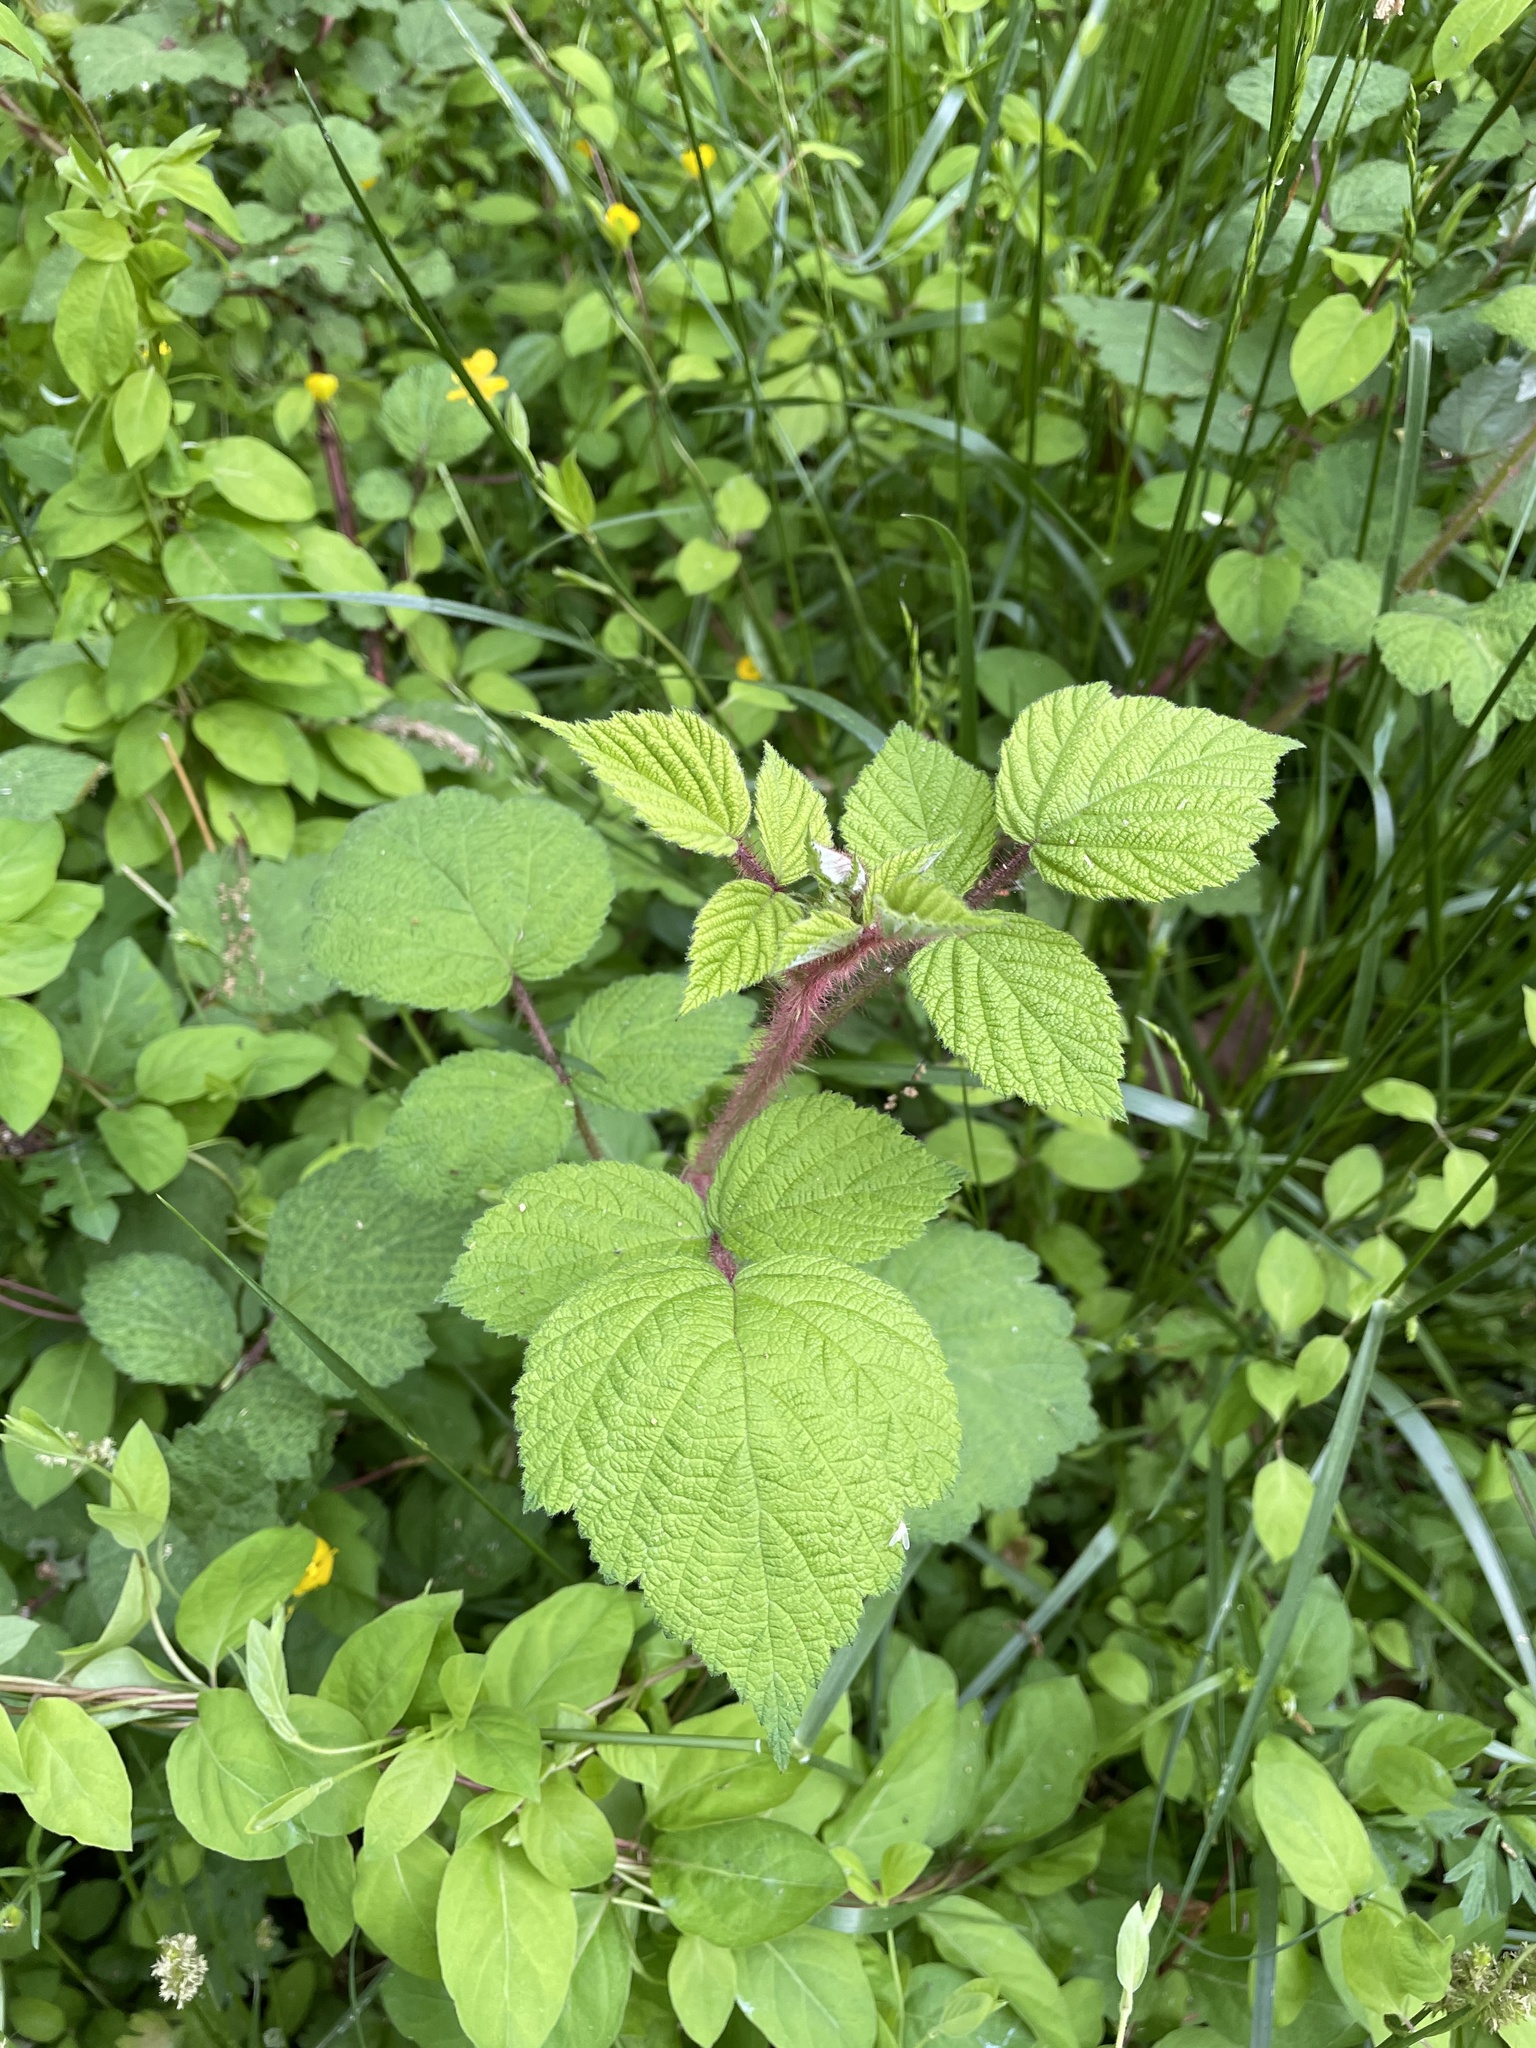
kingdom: Plantae
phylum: Tracheophyta
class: Magnoliopsida
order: Rosales
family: Rosaceae
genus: Rubus
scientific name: Rubus phoenicolasius
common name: Japanese wineberry
